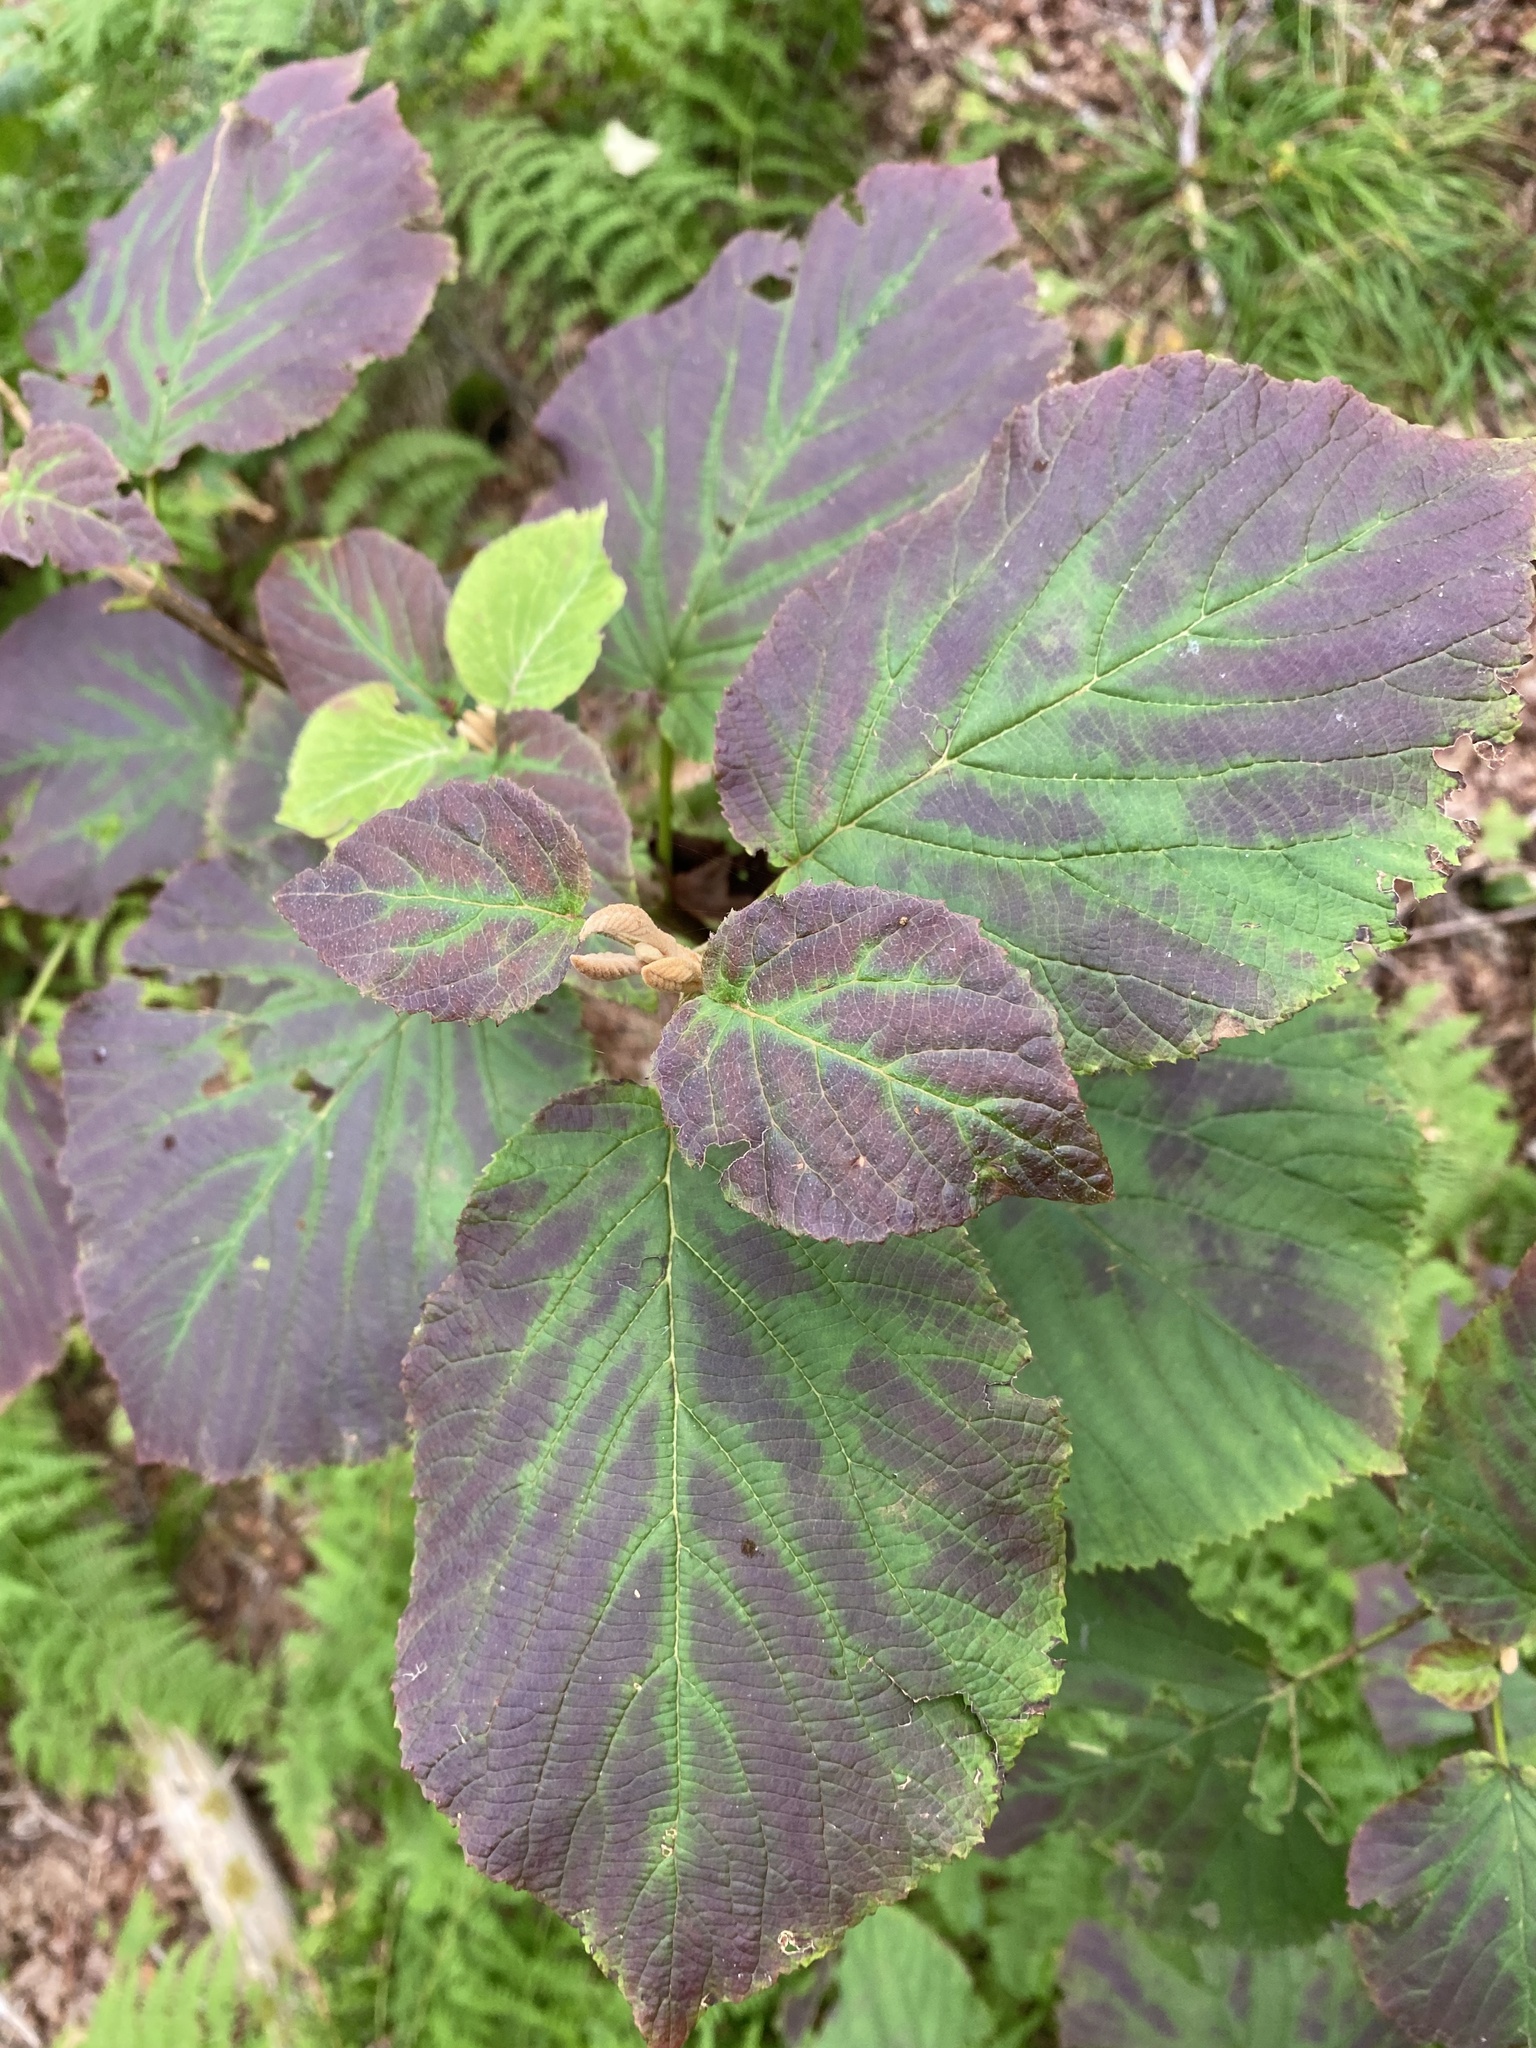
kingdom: Plantae
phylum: Tracheophyta
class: Magnoliopsida
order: Dipsacales
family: Viburnaceae
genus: Viburnum
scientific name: Viburnum lantanoides
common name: Hobblebush
